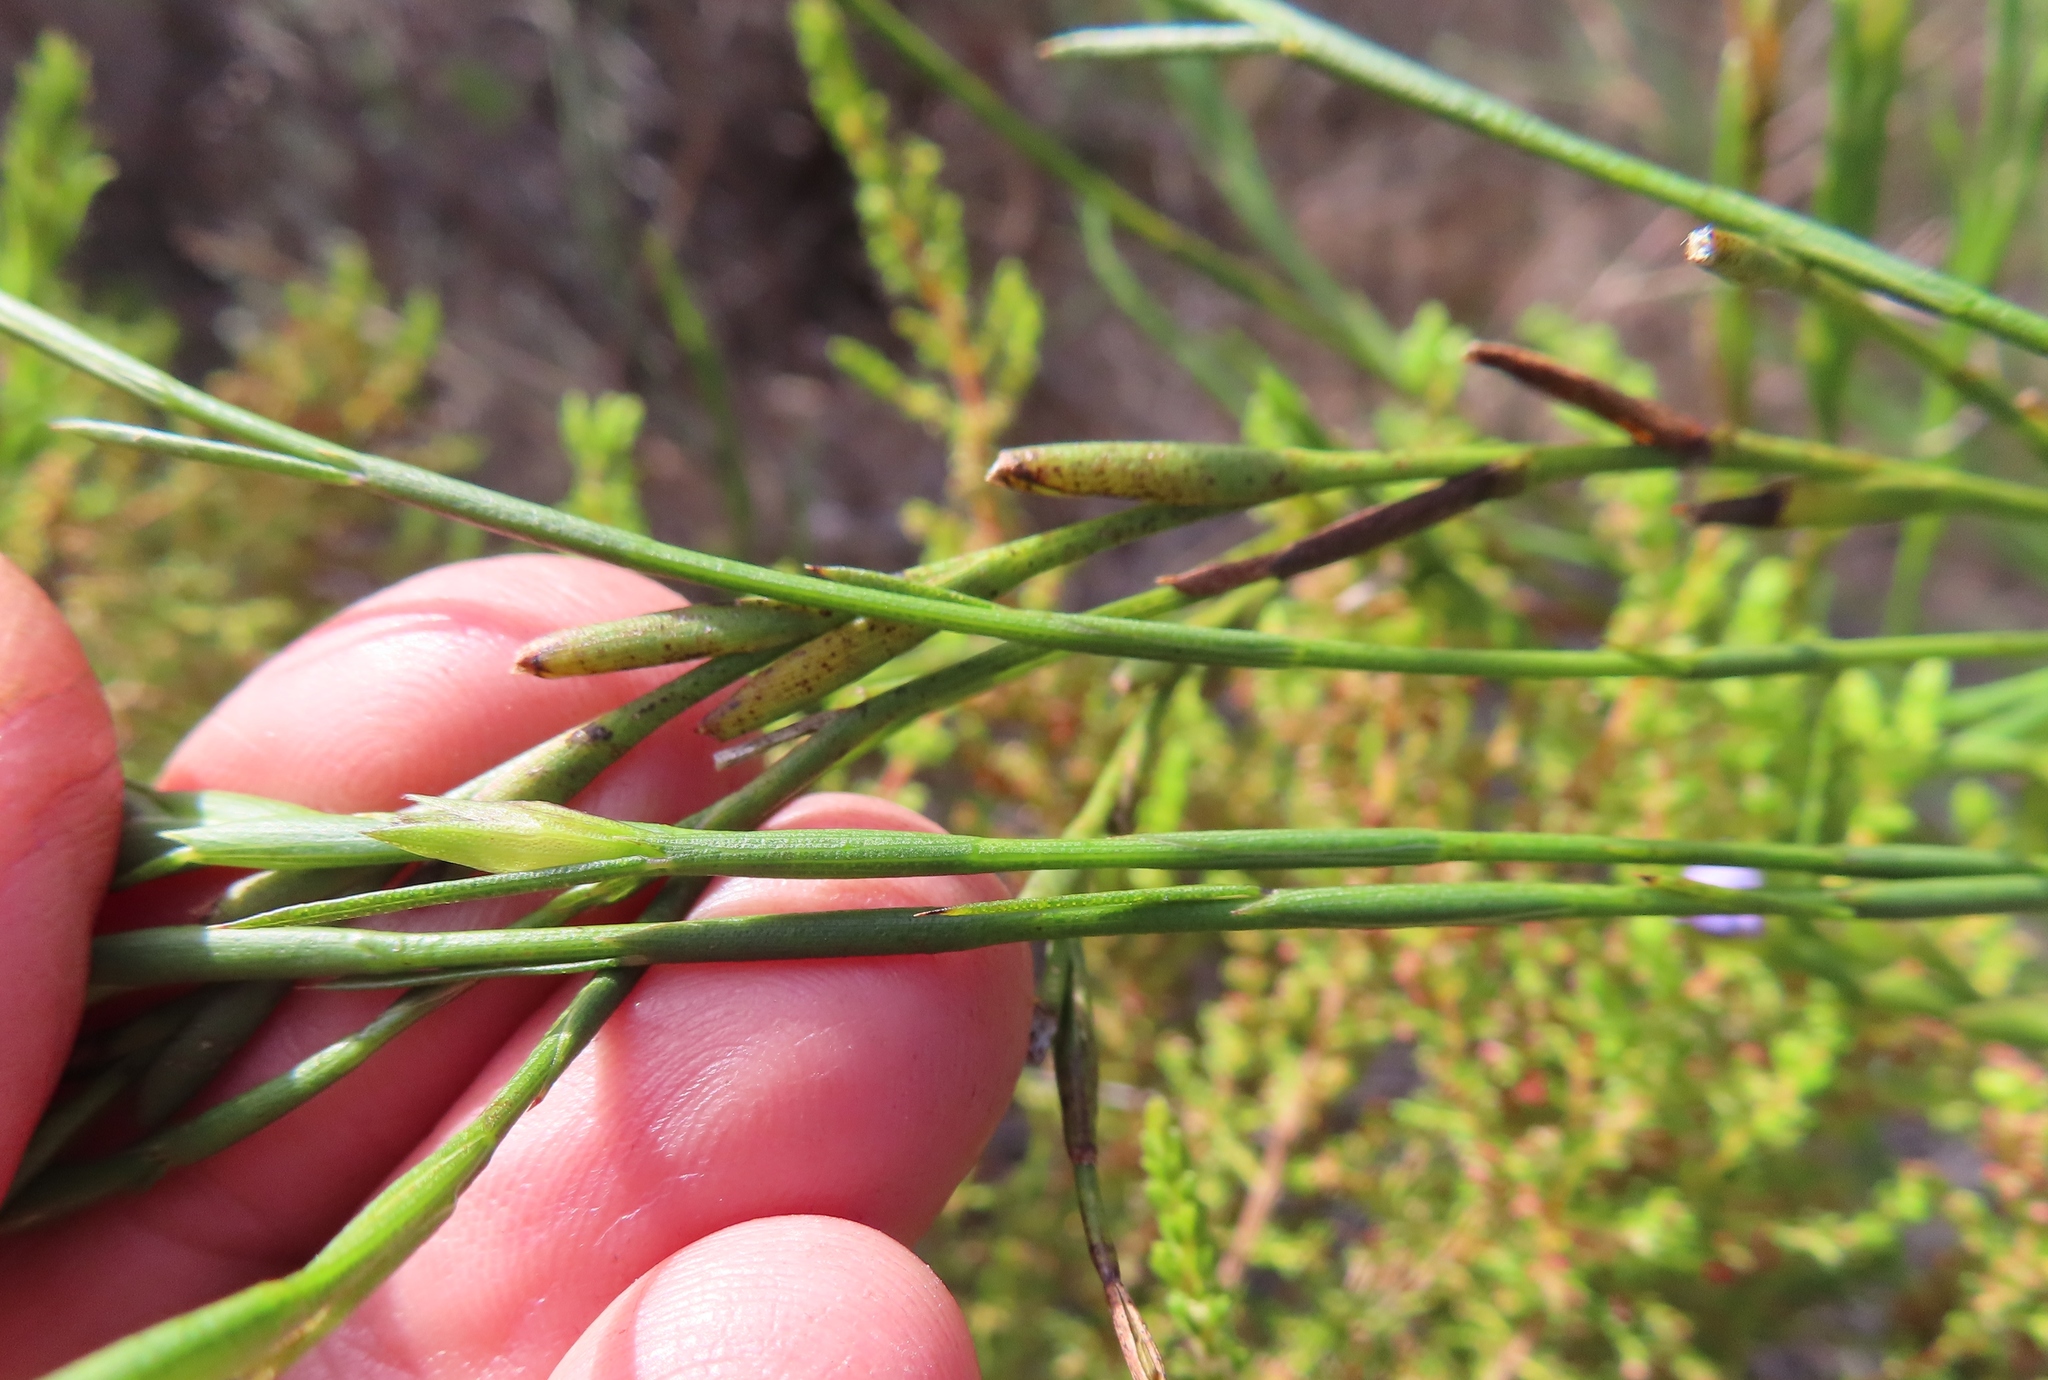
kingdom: Plantae
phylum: Tracheophyta
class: Magnoliopsida
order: Fabales
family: Fabaceae
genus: Psoralea
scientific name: Psoralea restioides
